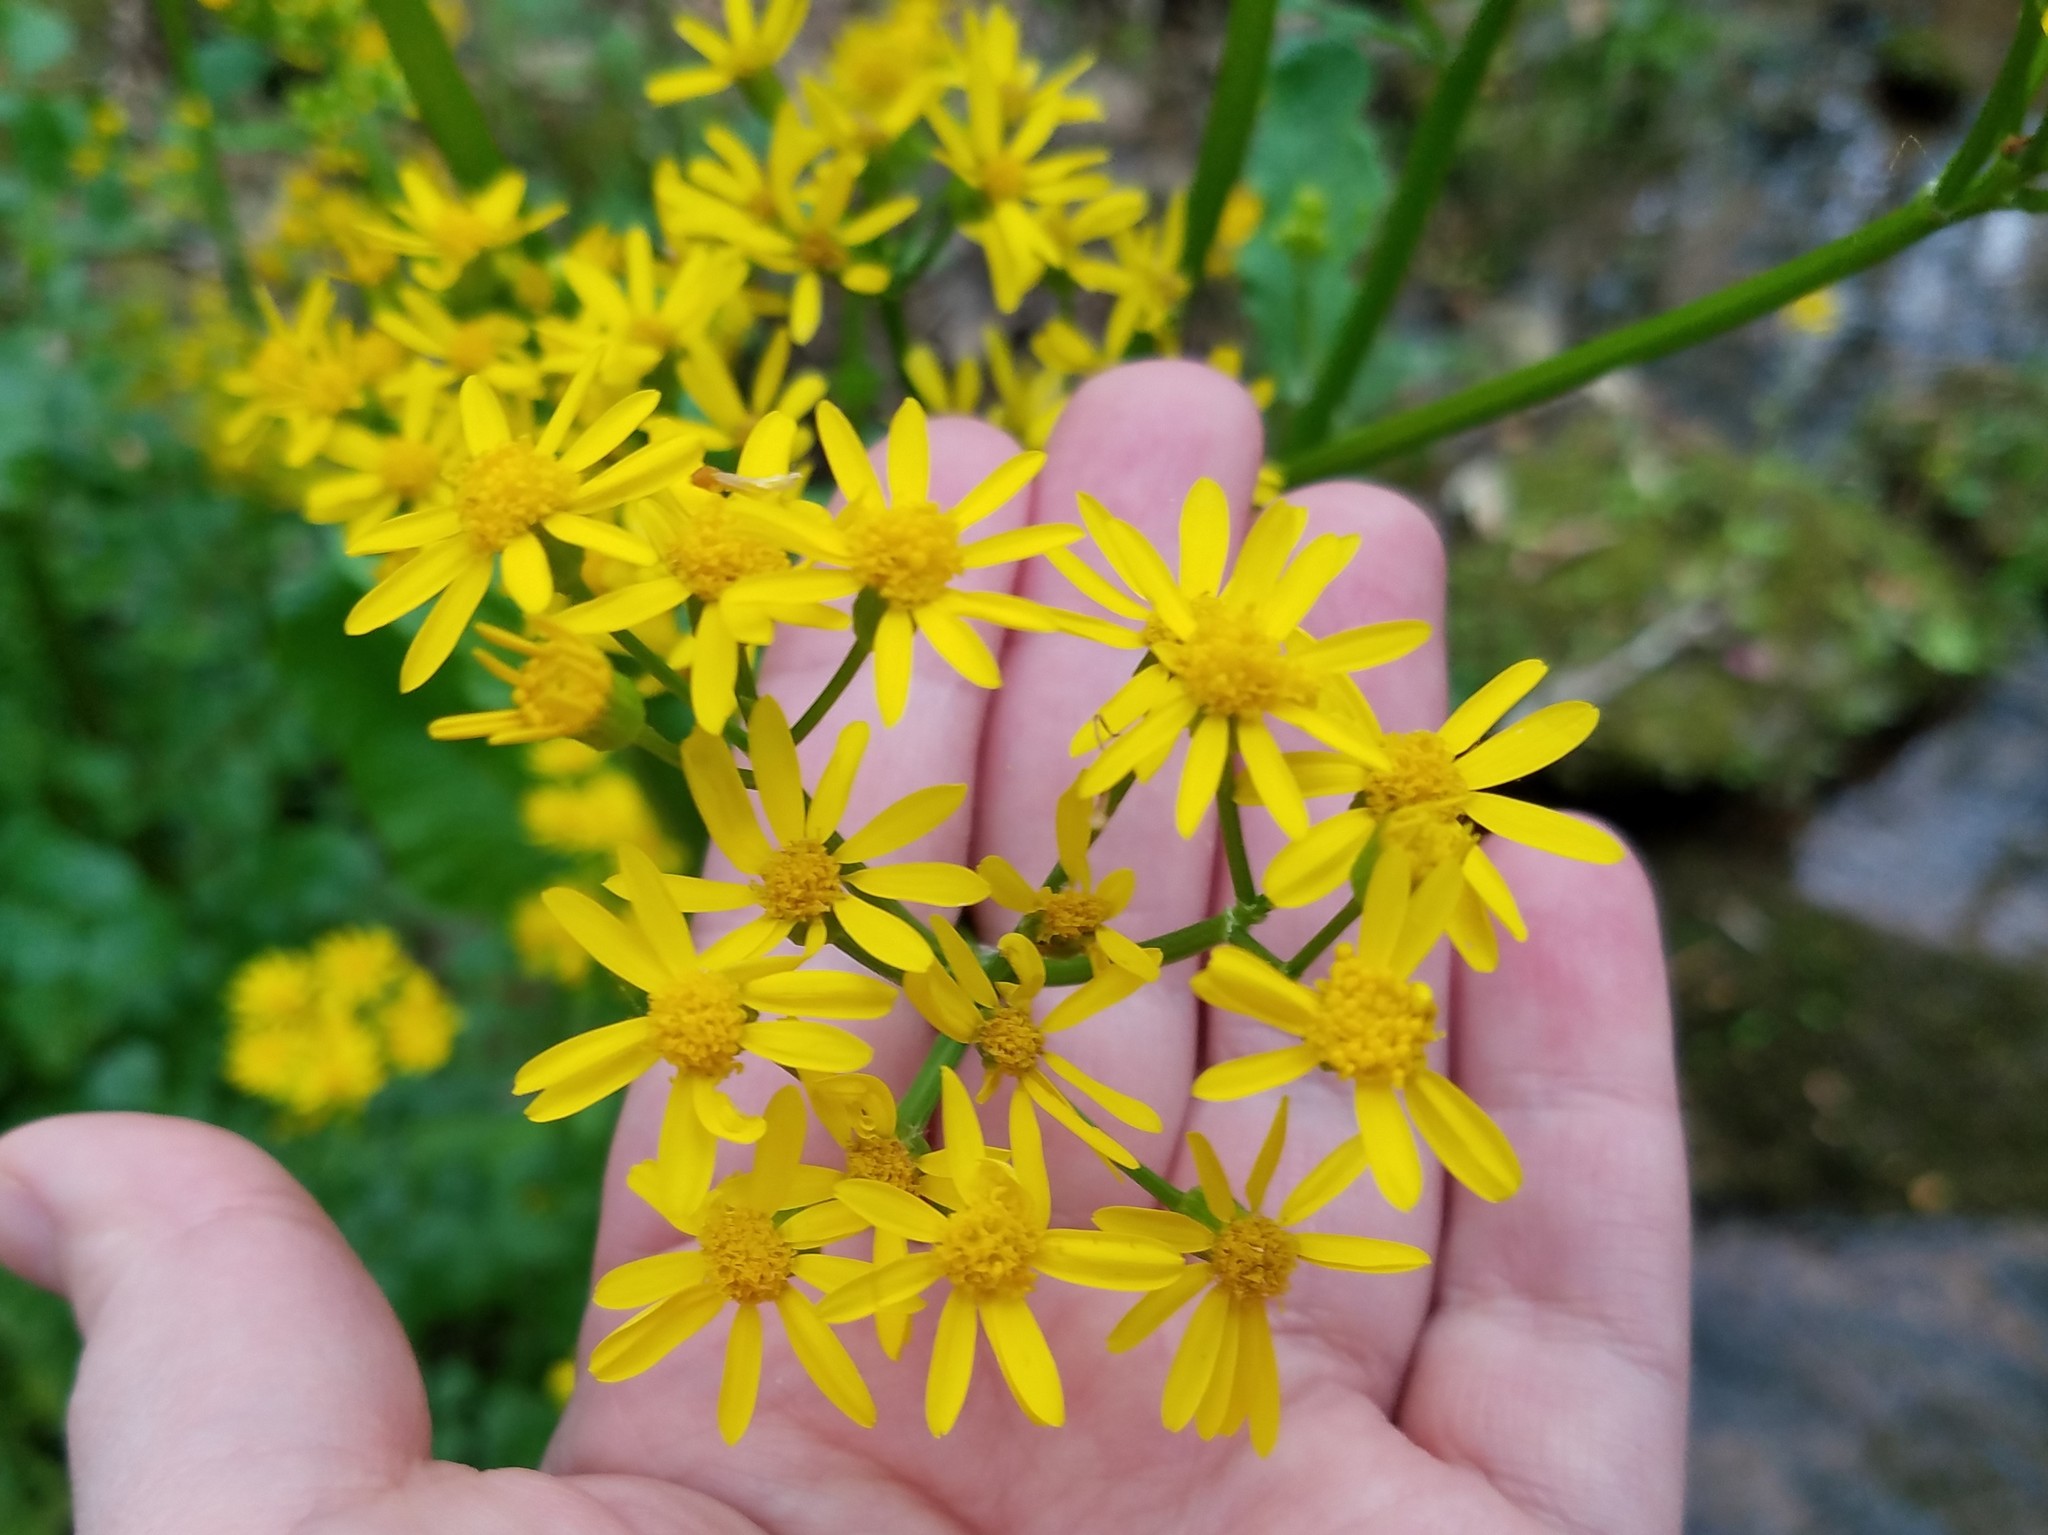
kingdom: Plantae
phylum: Tracheophyta
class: Magnoliopsida
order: Asterales
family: Asteraceae
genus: Packera
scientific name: Packera glabella
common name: Butterweed
